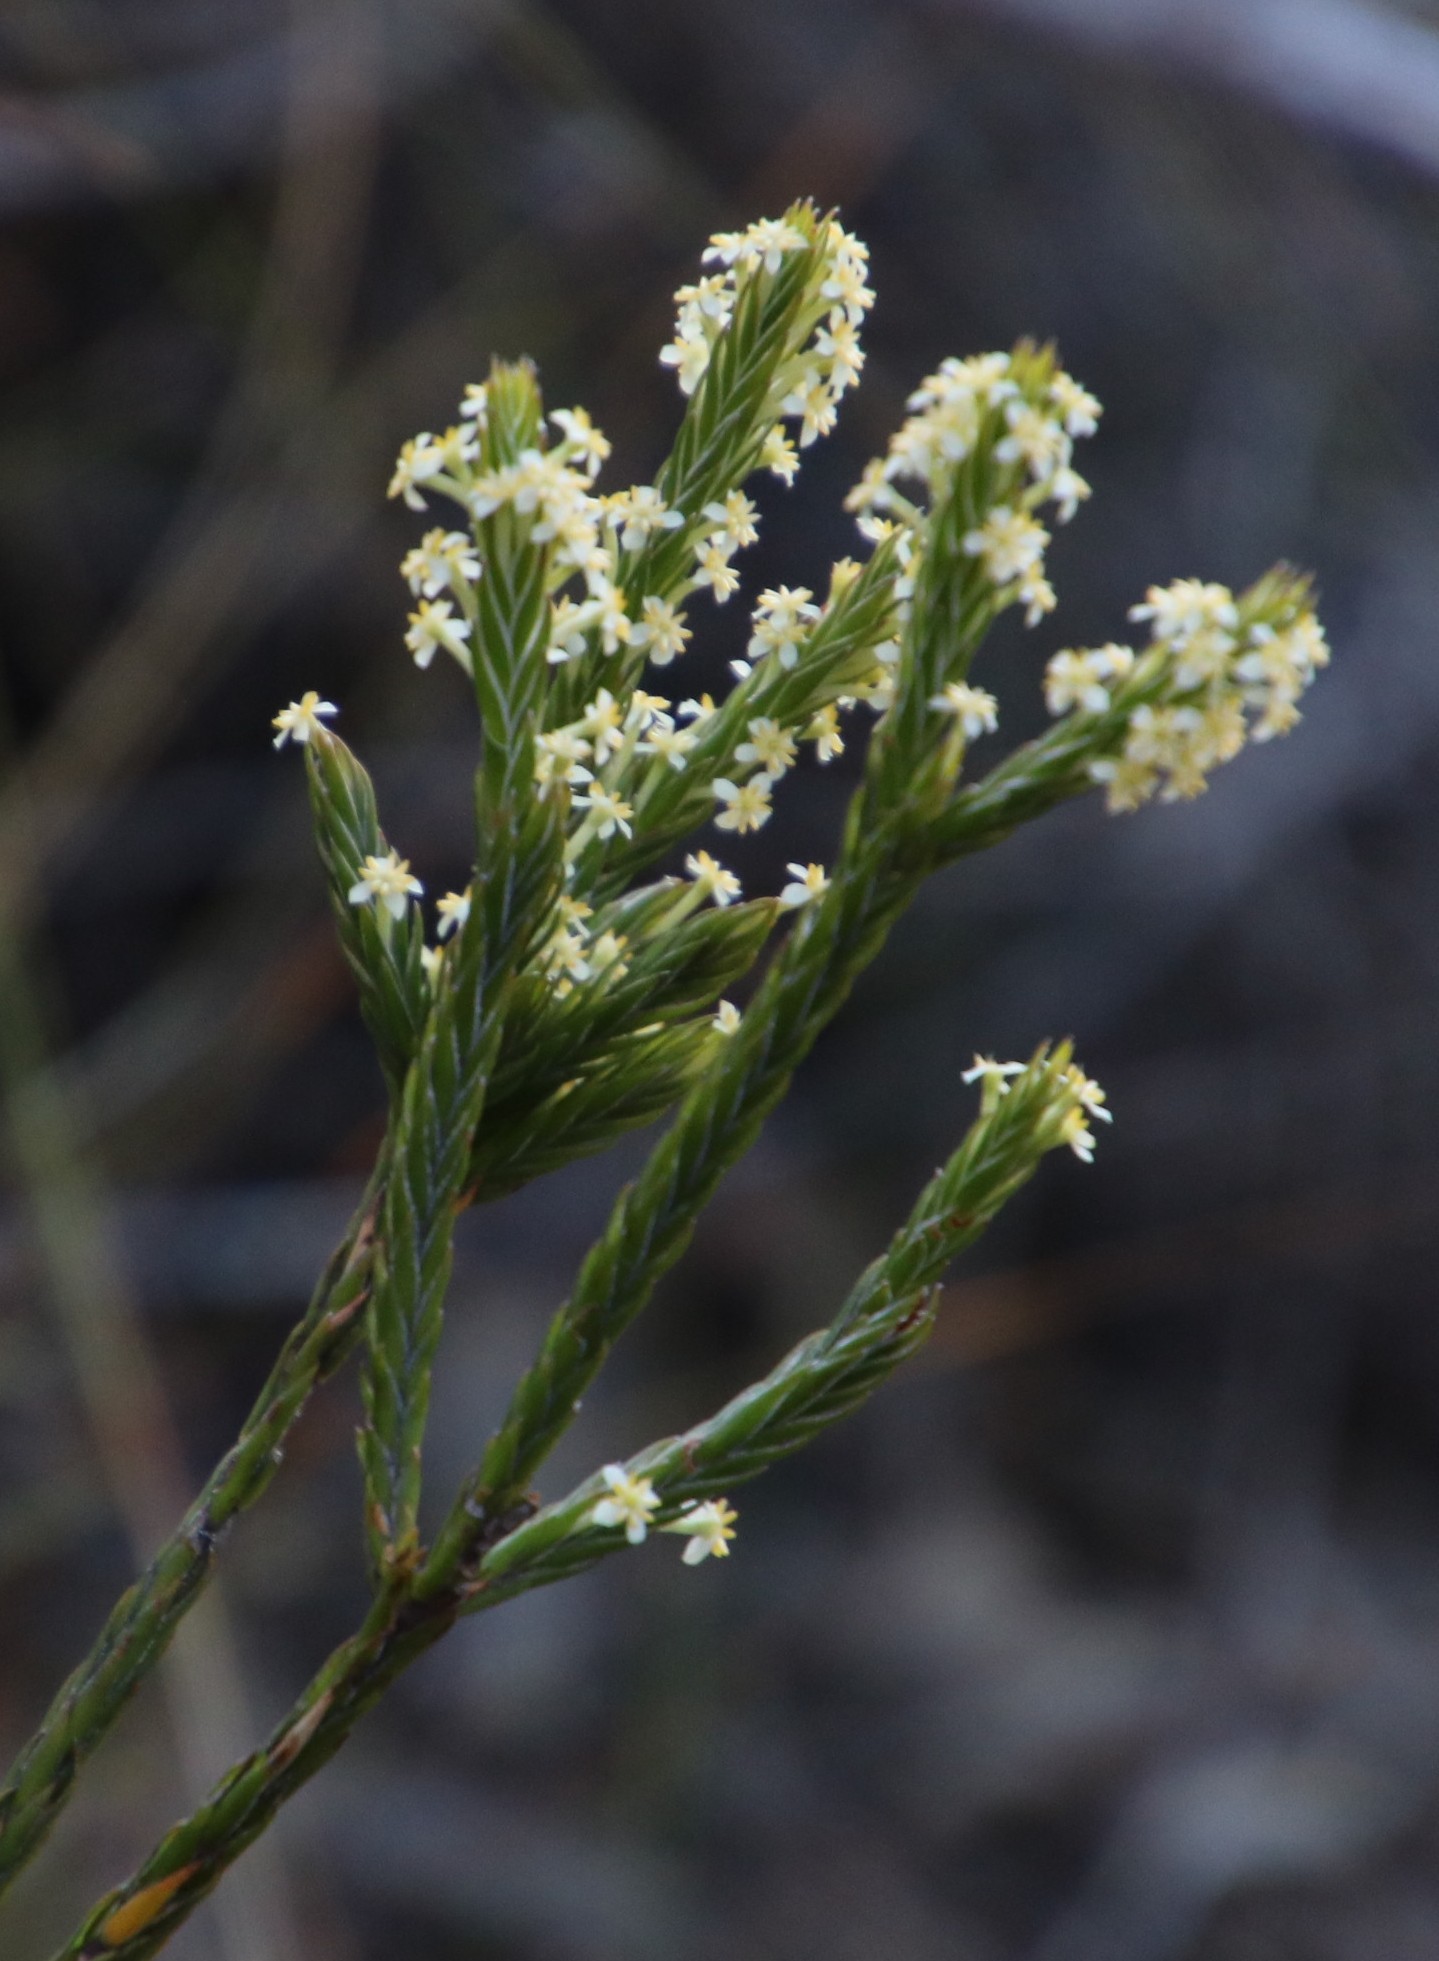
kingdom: Plantae
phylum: Tracheophyta
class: Magnoliopsida
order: Malvales
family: Thymelaeaceae
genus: Struthiola
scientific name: Struthiola ciliata
